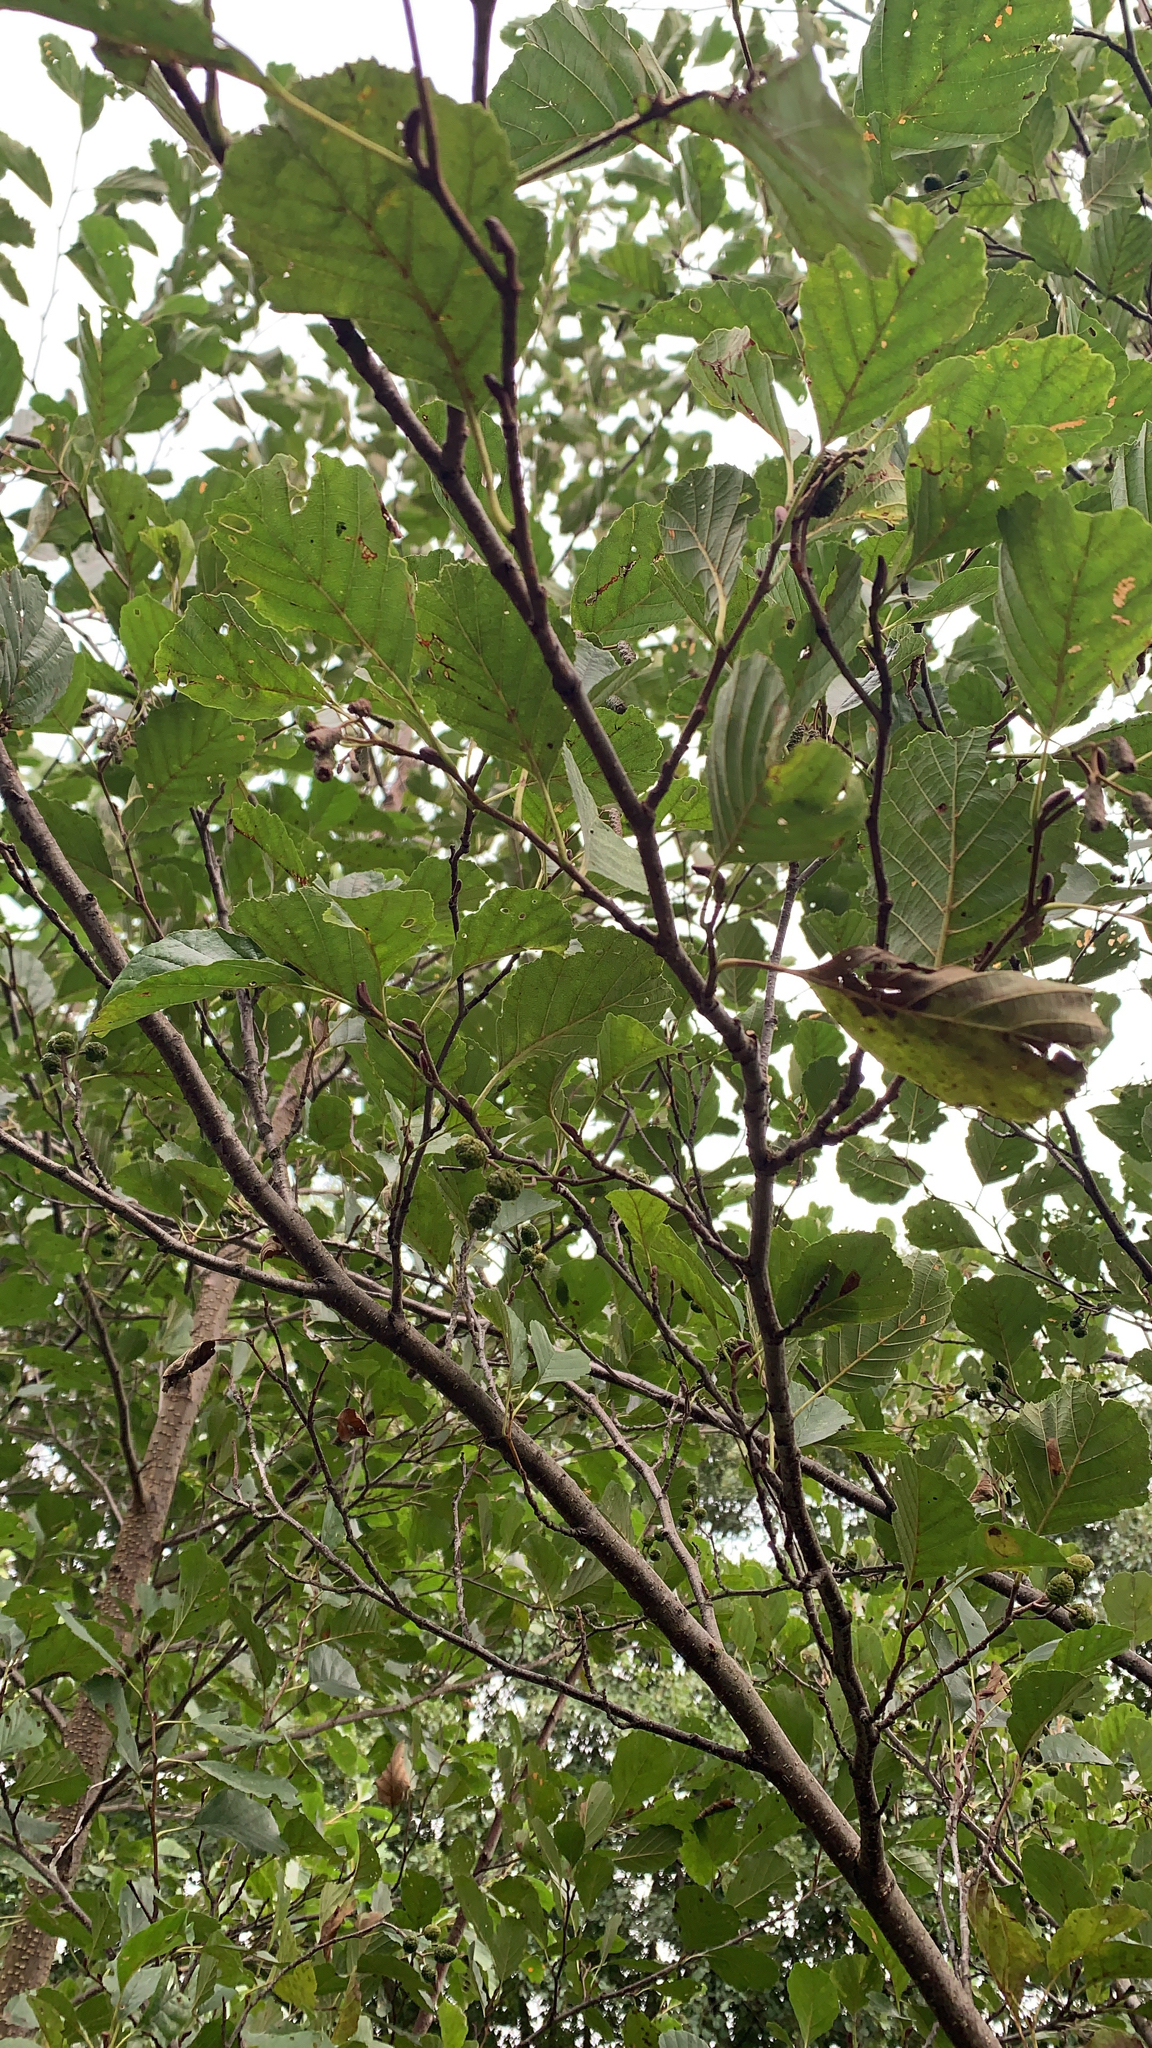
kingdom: Plantae
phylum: Tracheophyta
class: Magnoliopsida
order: Fagales
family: Betulaceae
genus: Alnus
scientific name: Alnus glutinosa
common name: Black alder
